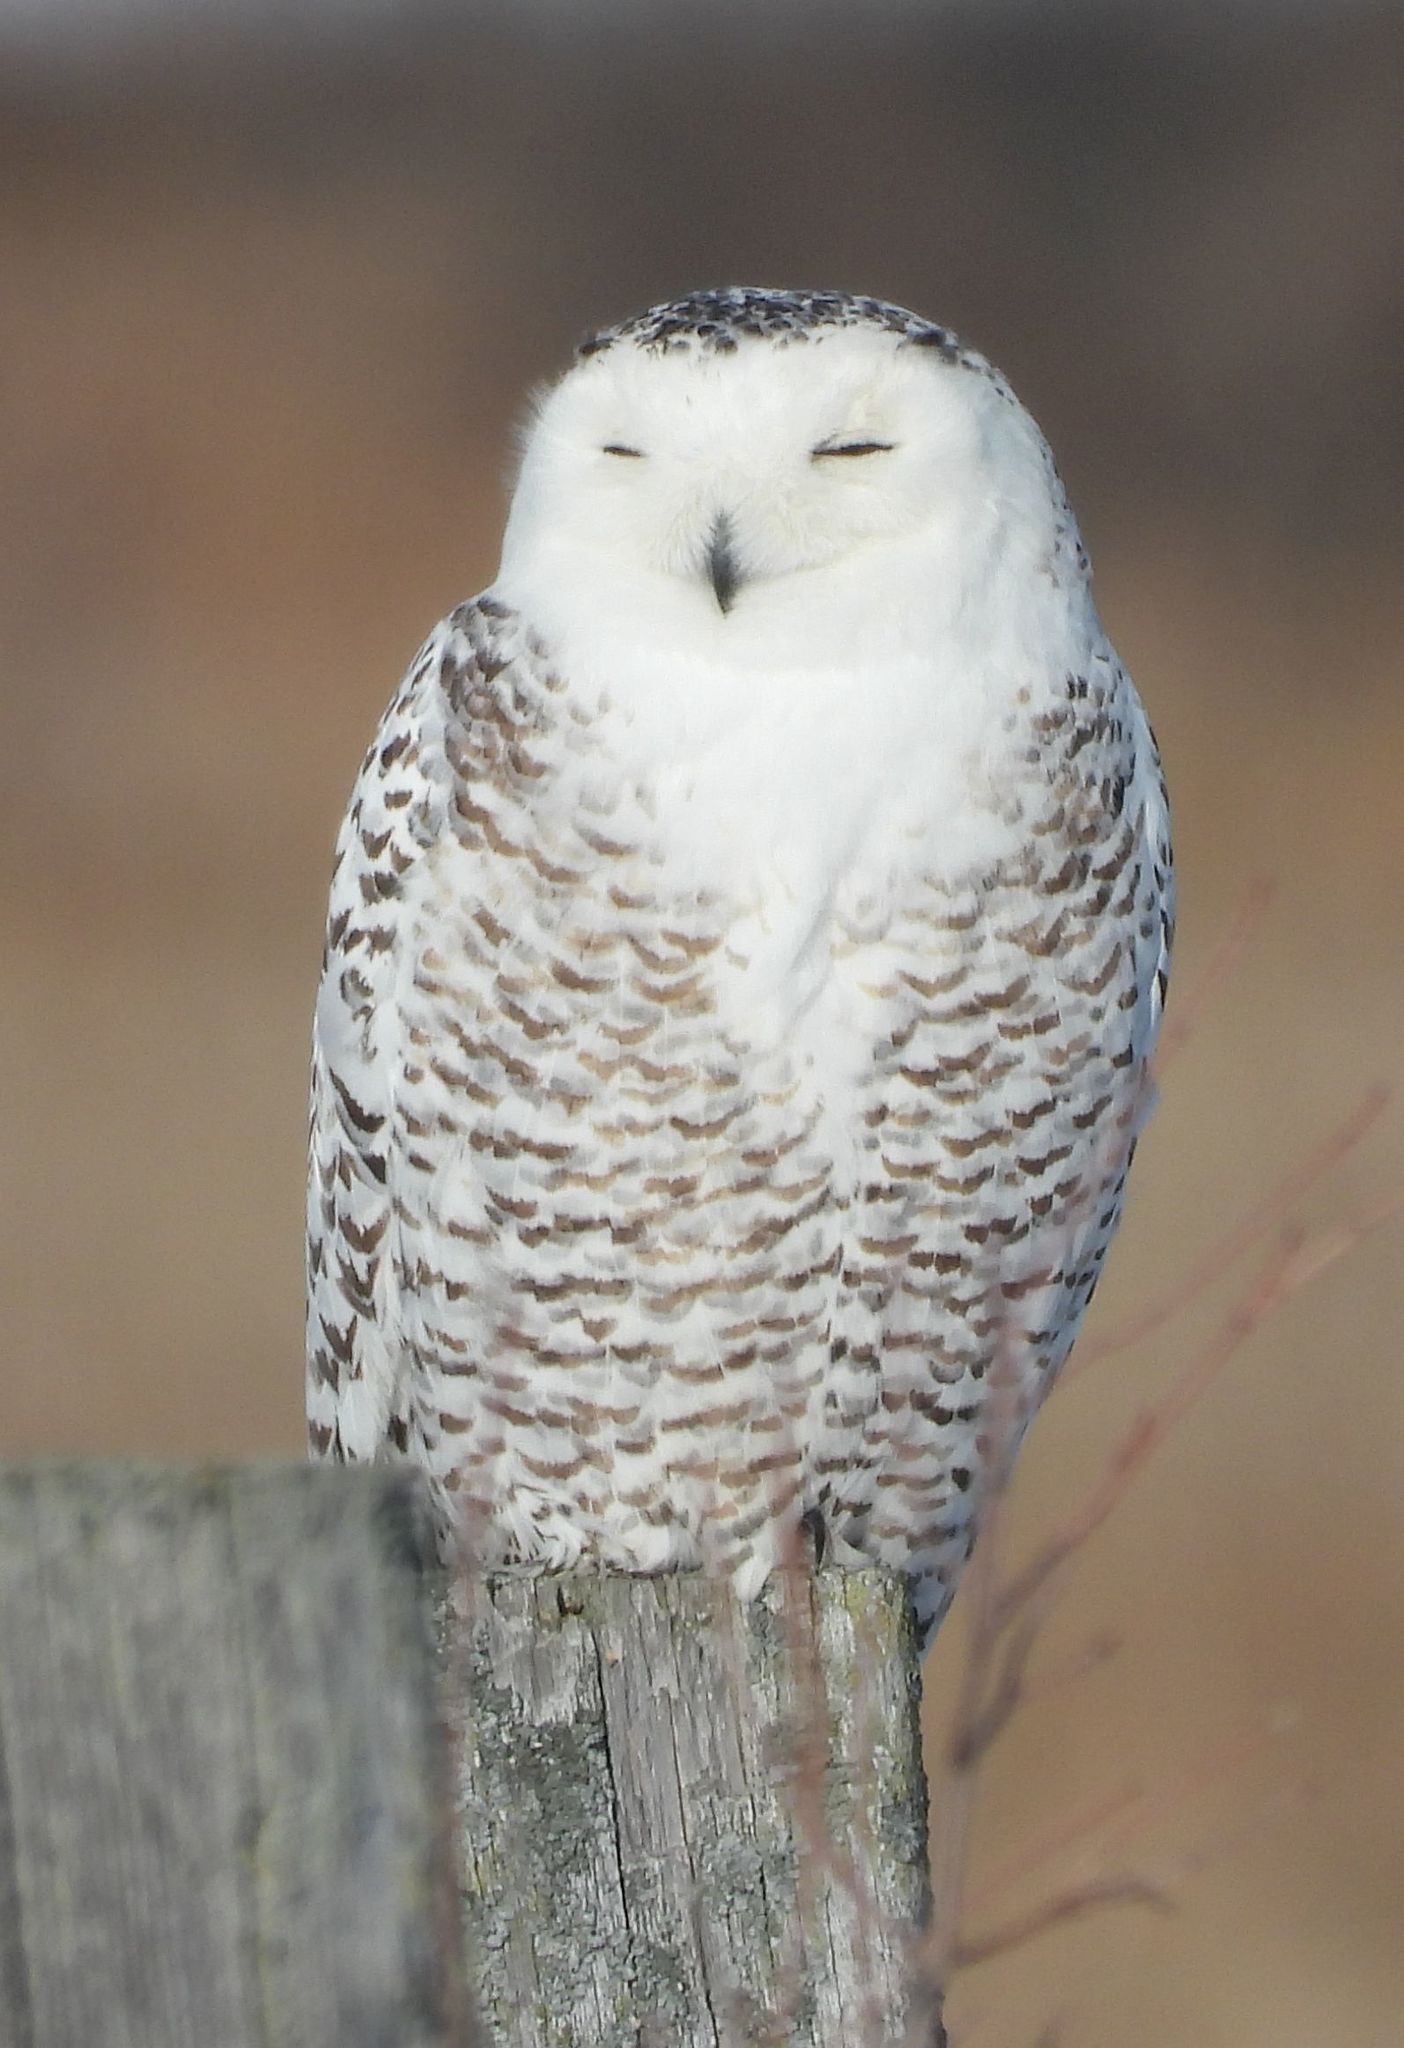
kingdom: Animalia
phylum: Chordata
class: Aves
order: Strigiformes
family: Strigidae
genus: Bubo
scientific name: Bubo scandiacus
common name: Snowy owl
